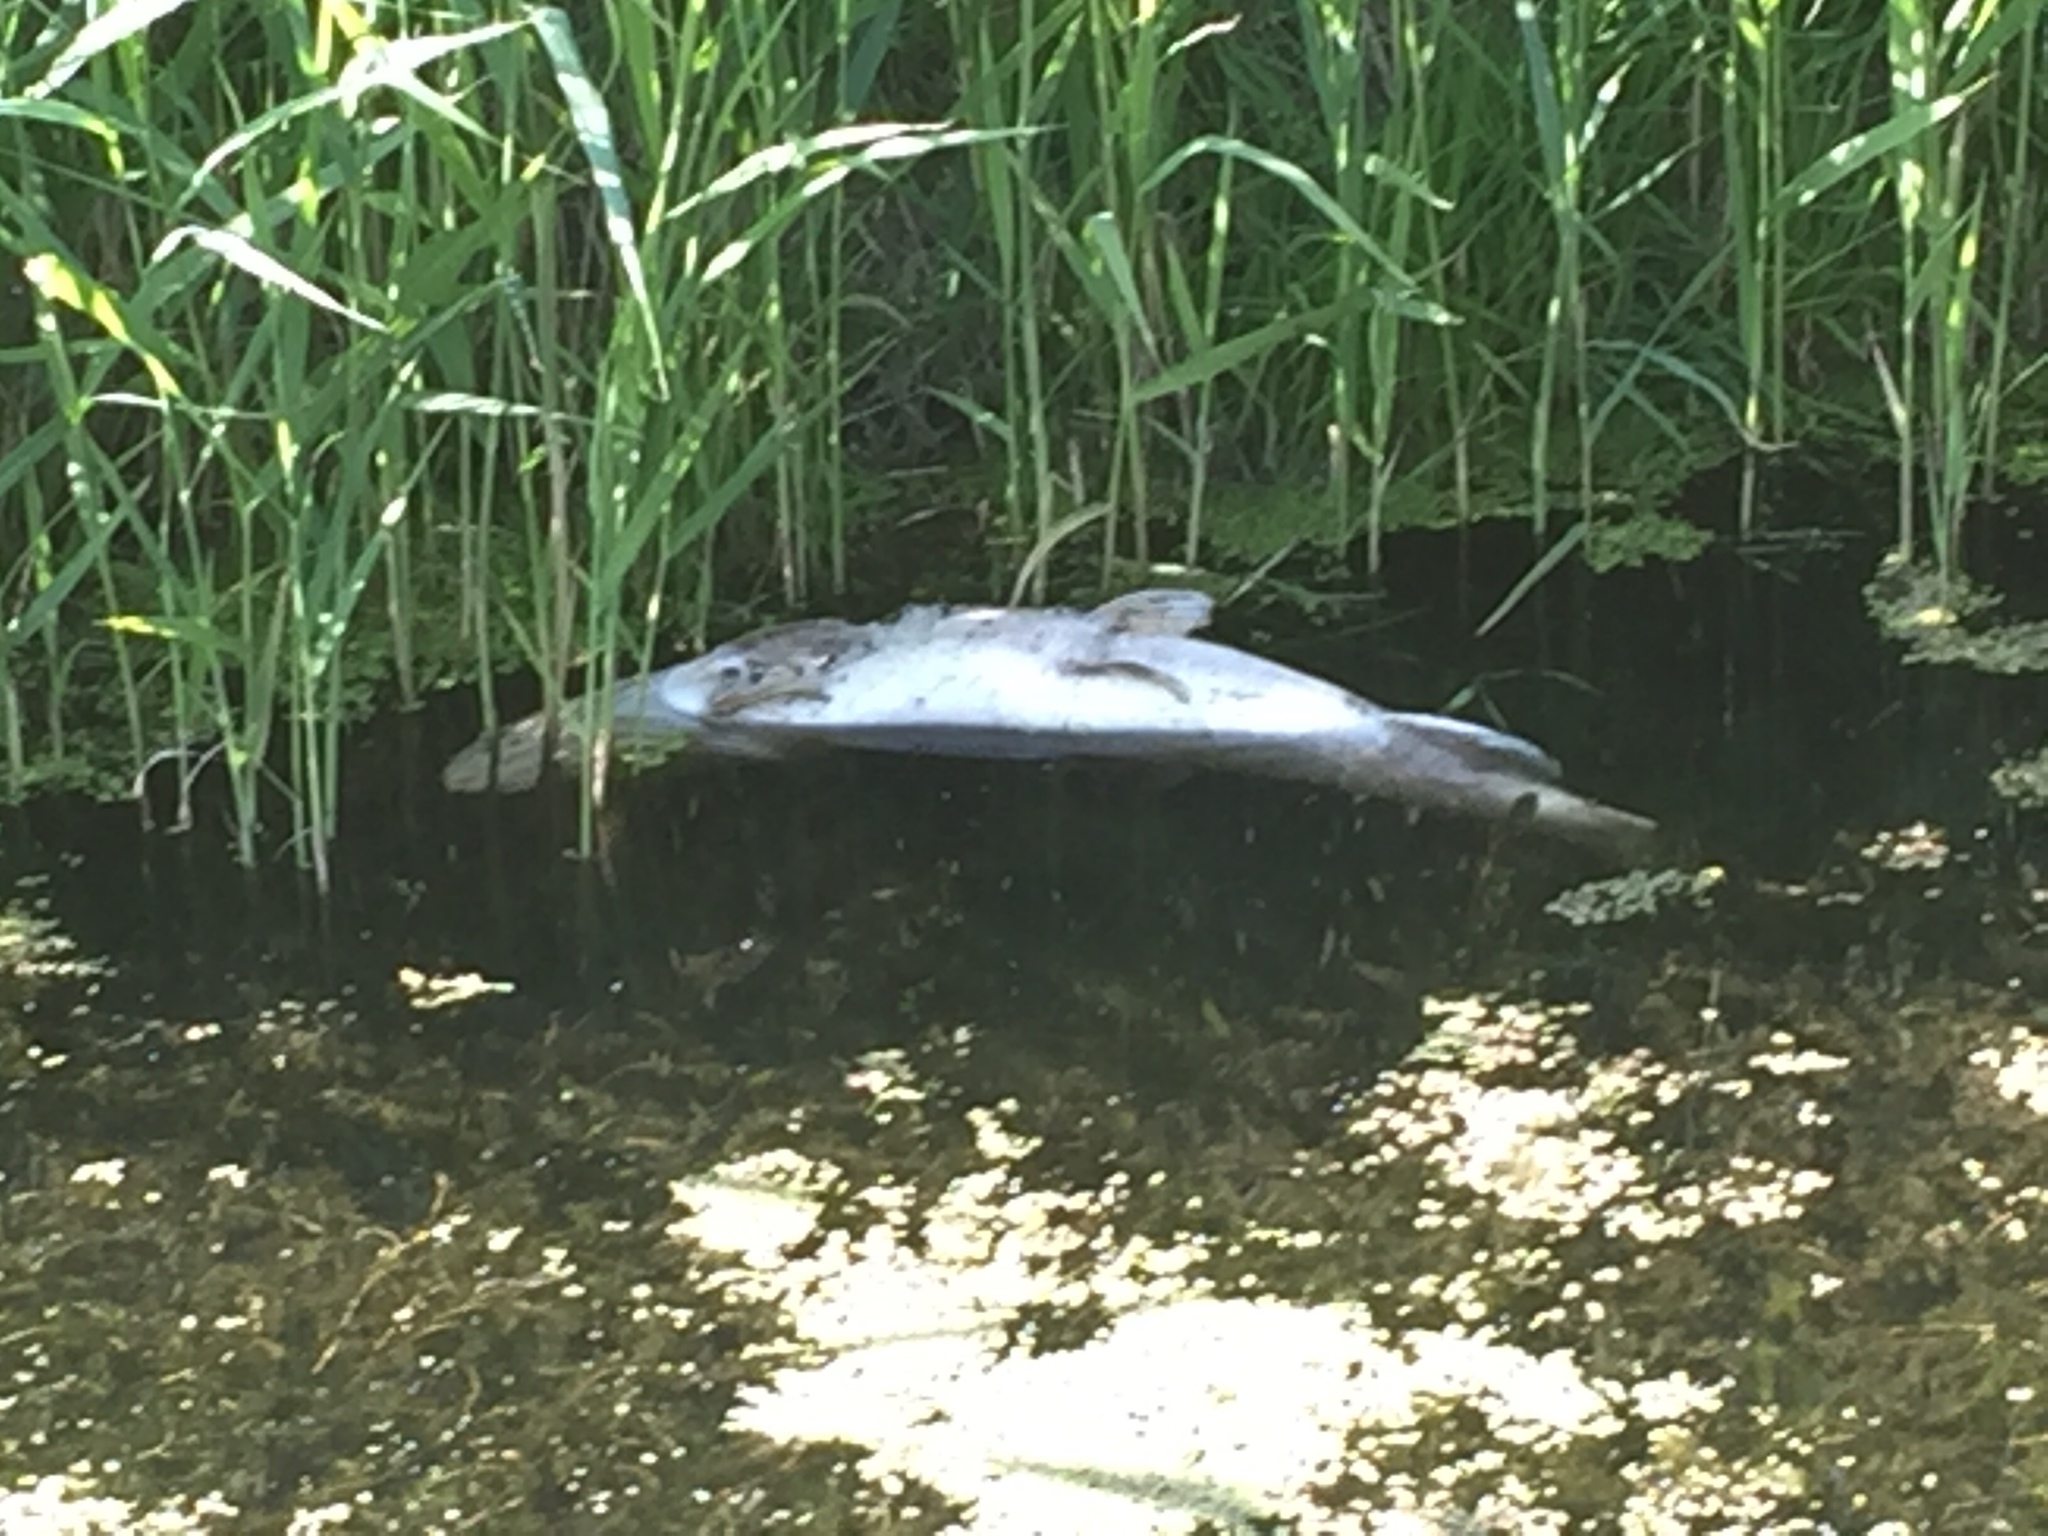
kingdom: Animalia
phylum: Chordata
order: Esociformes
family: Esocidae
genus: Esox
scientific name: Esox lucius
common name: Northern pike
